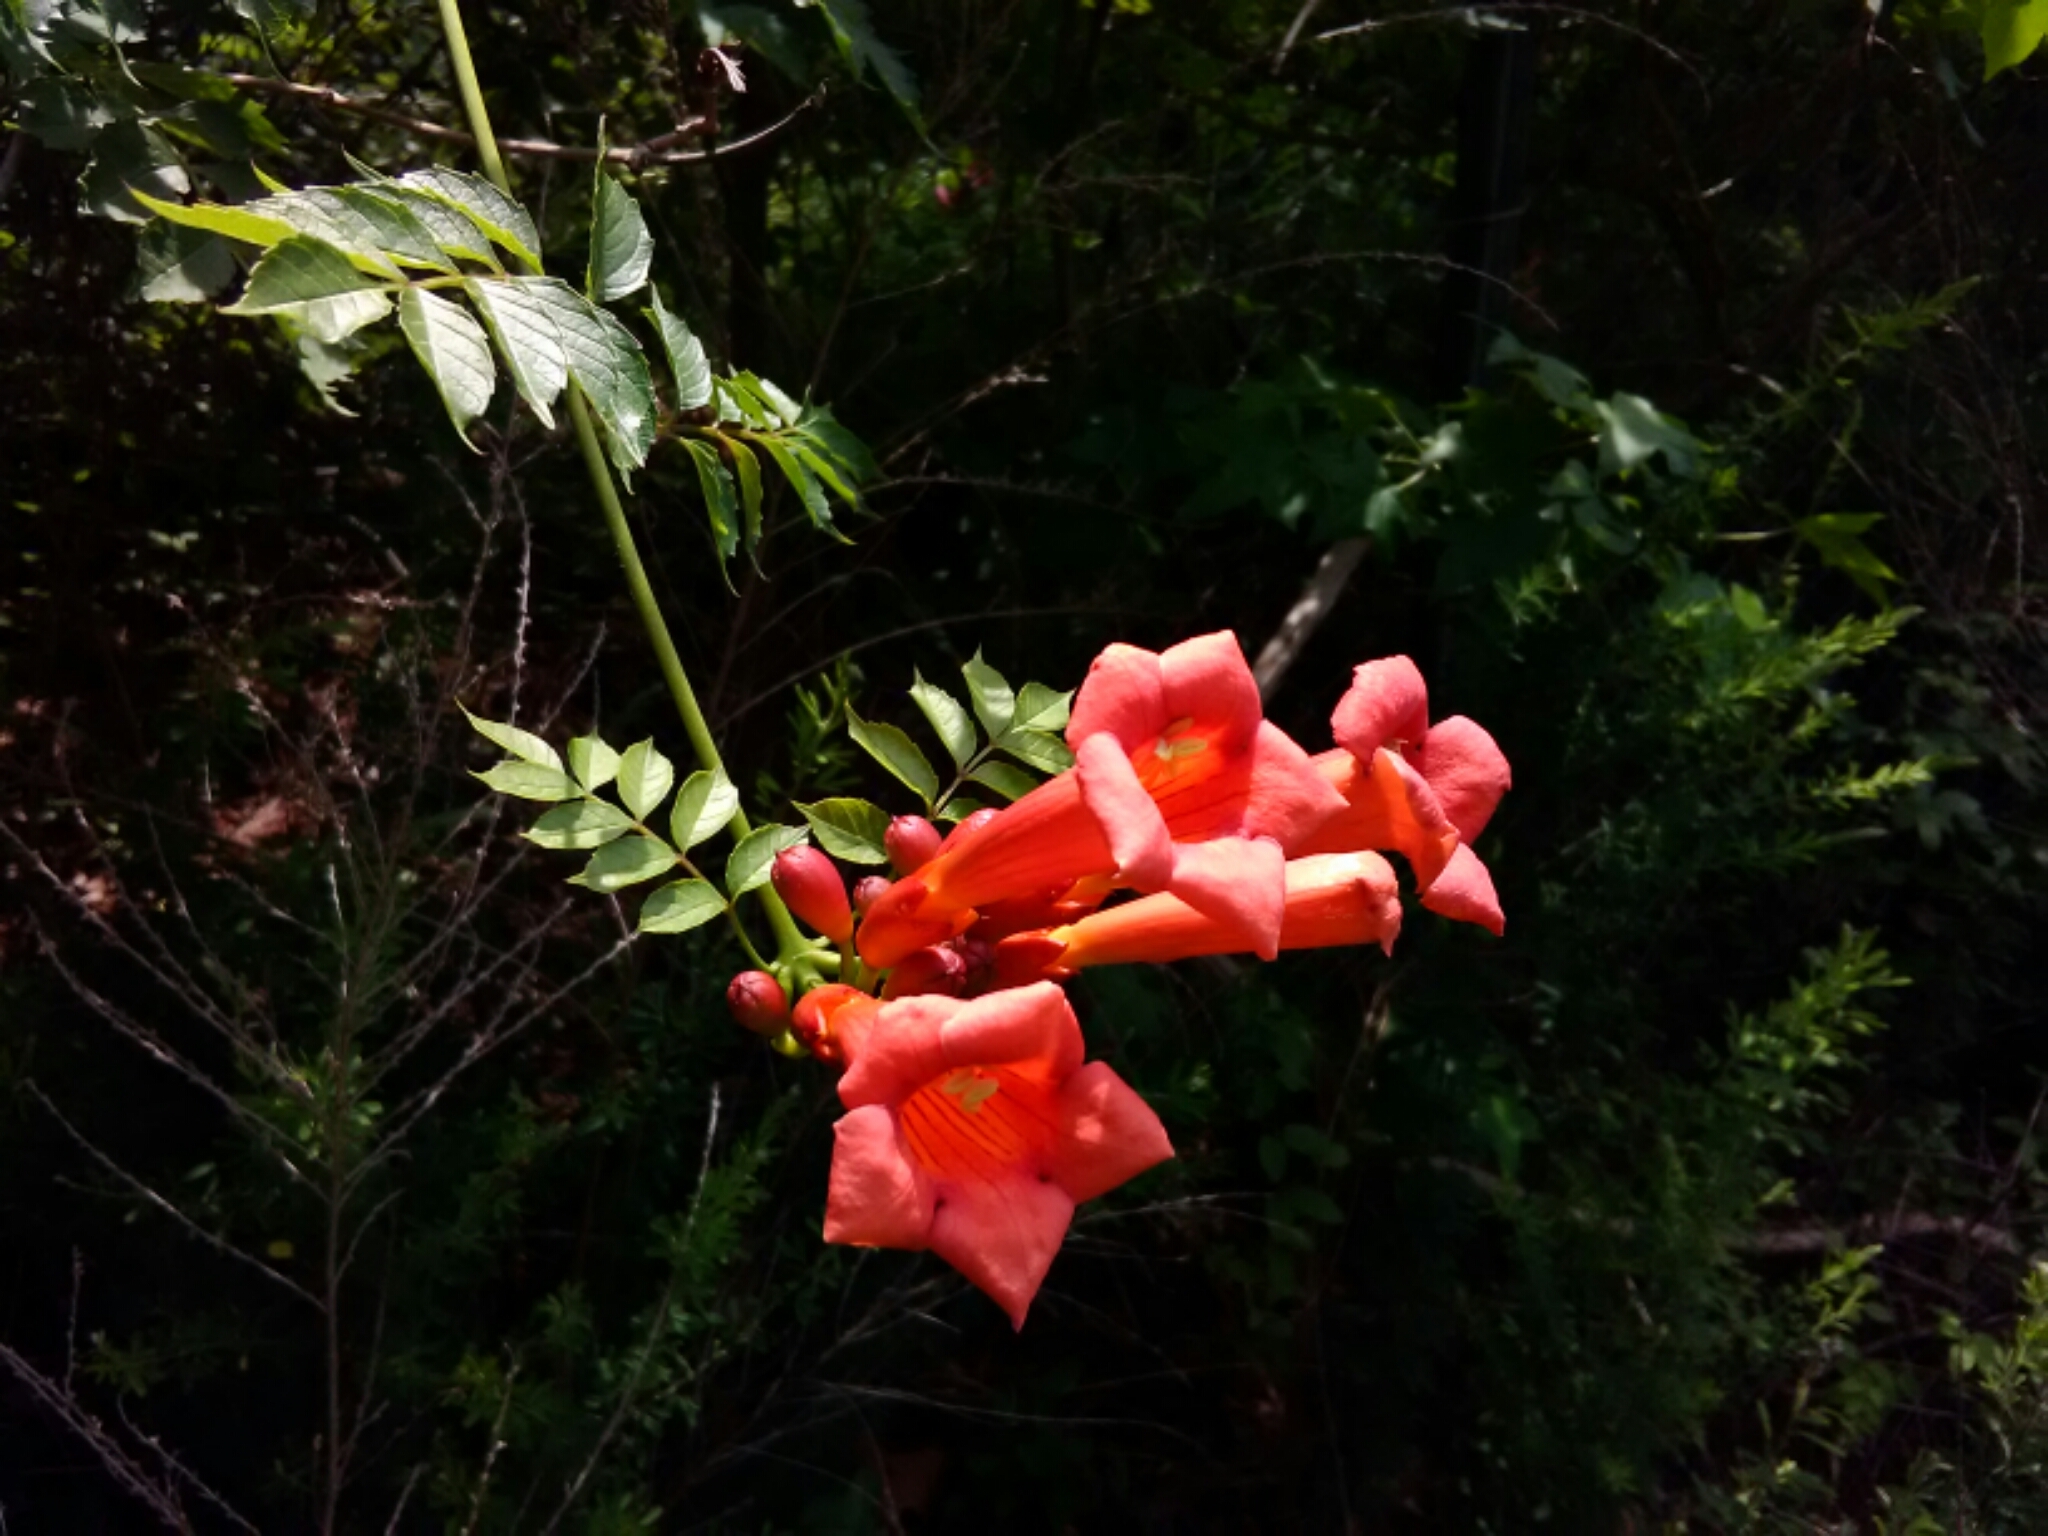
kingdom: Plantae
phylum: Tracheophyta
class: Magnoliopsida
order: Lamiales
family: Bignoniaceae
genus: Campsis
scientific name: Campsis radicans
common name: Trumpet-creeper
